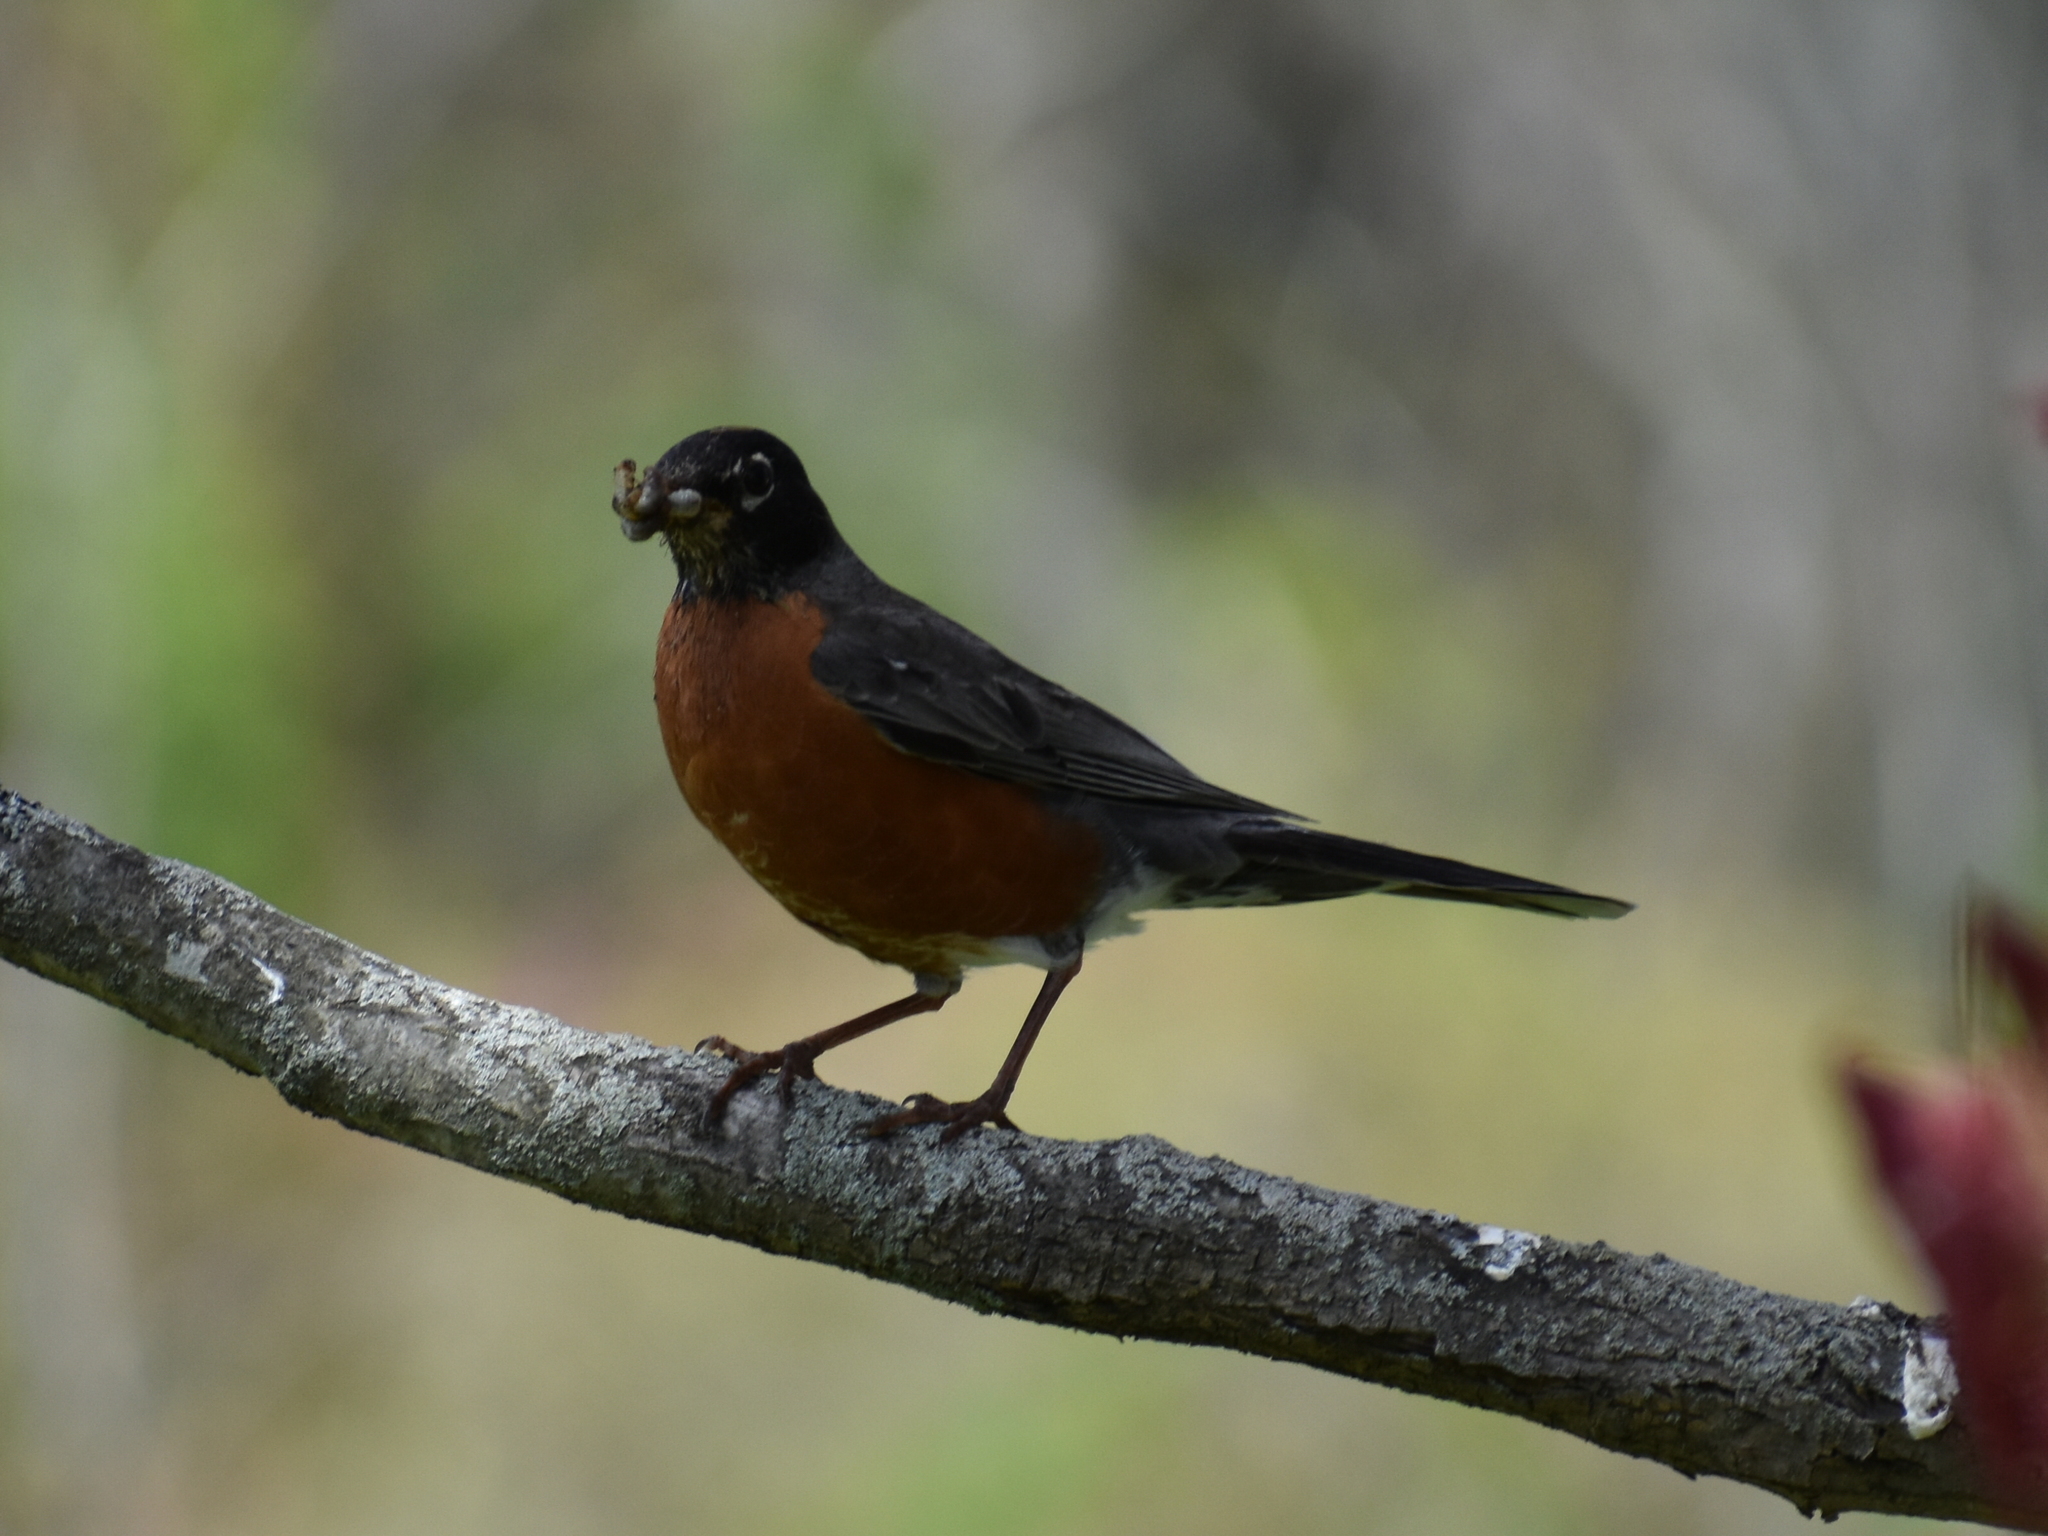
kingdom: Animalia
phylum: Chordata
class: Aves
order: Passeriformes
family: Turdidae
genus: Turdus
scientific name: Turdus migratorius
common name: American robin
